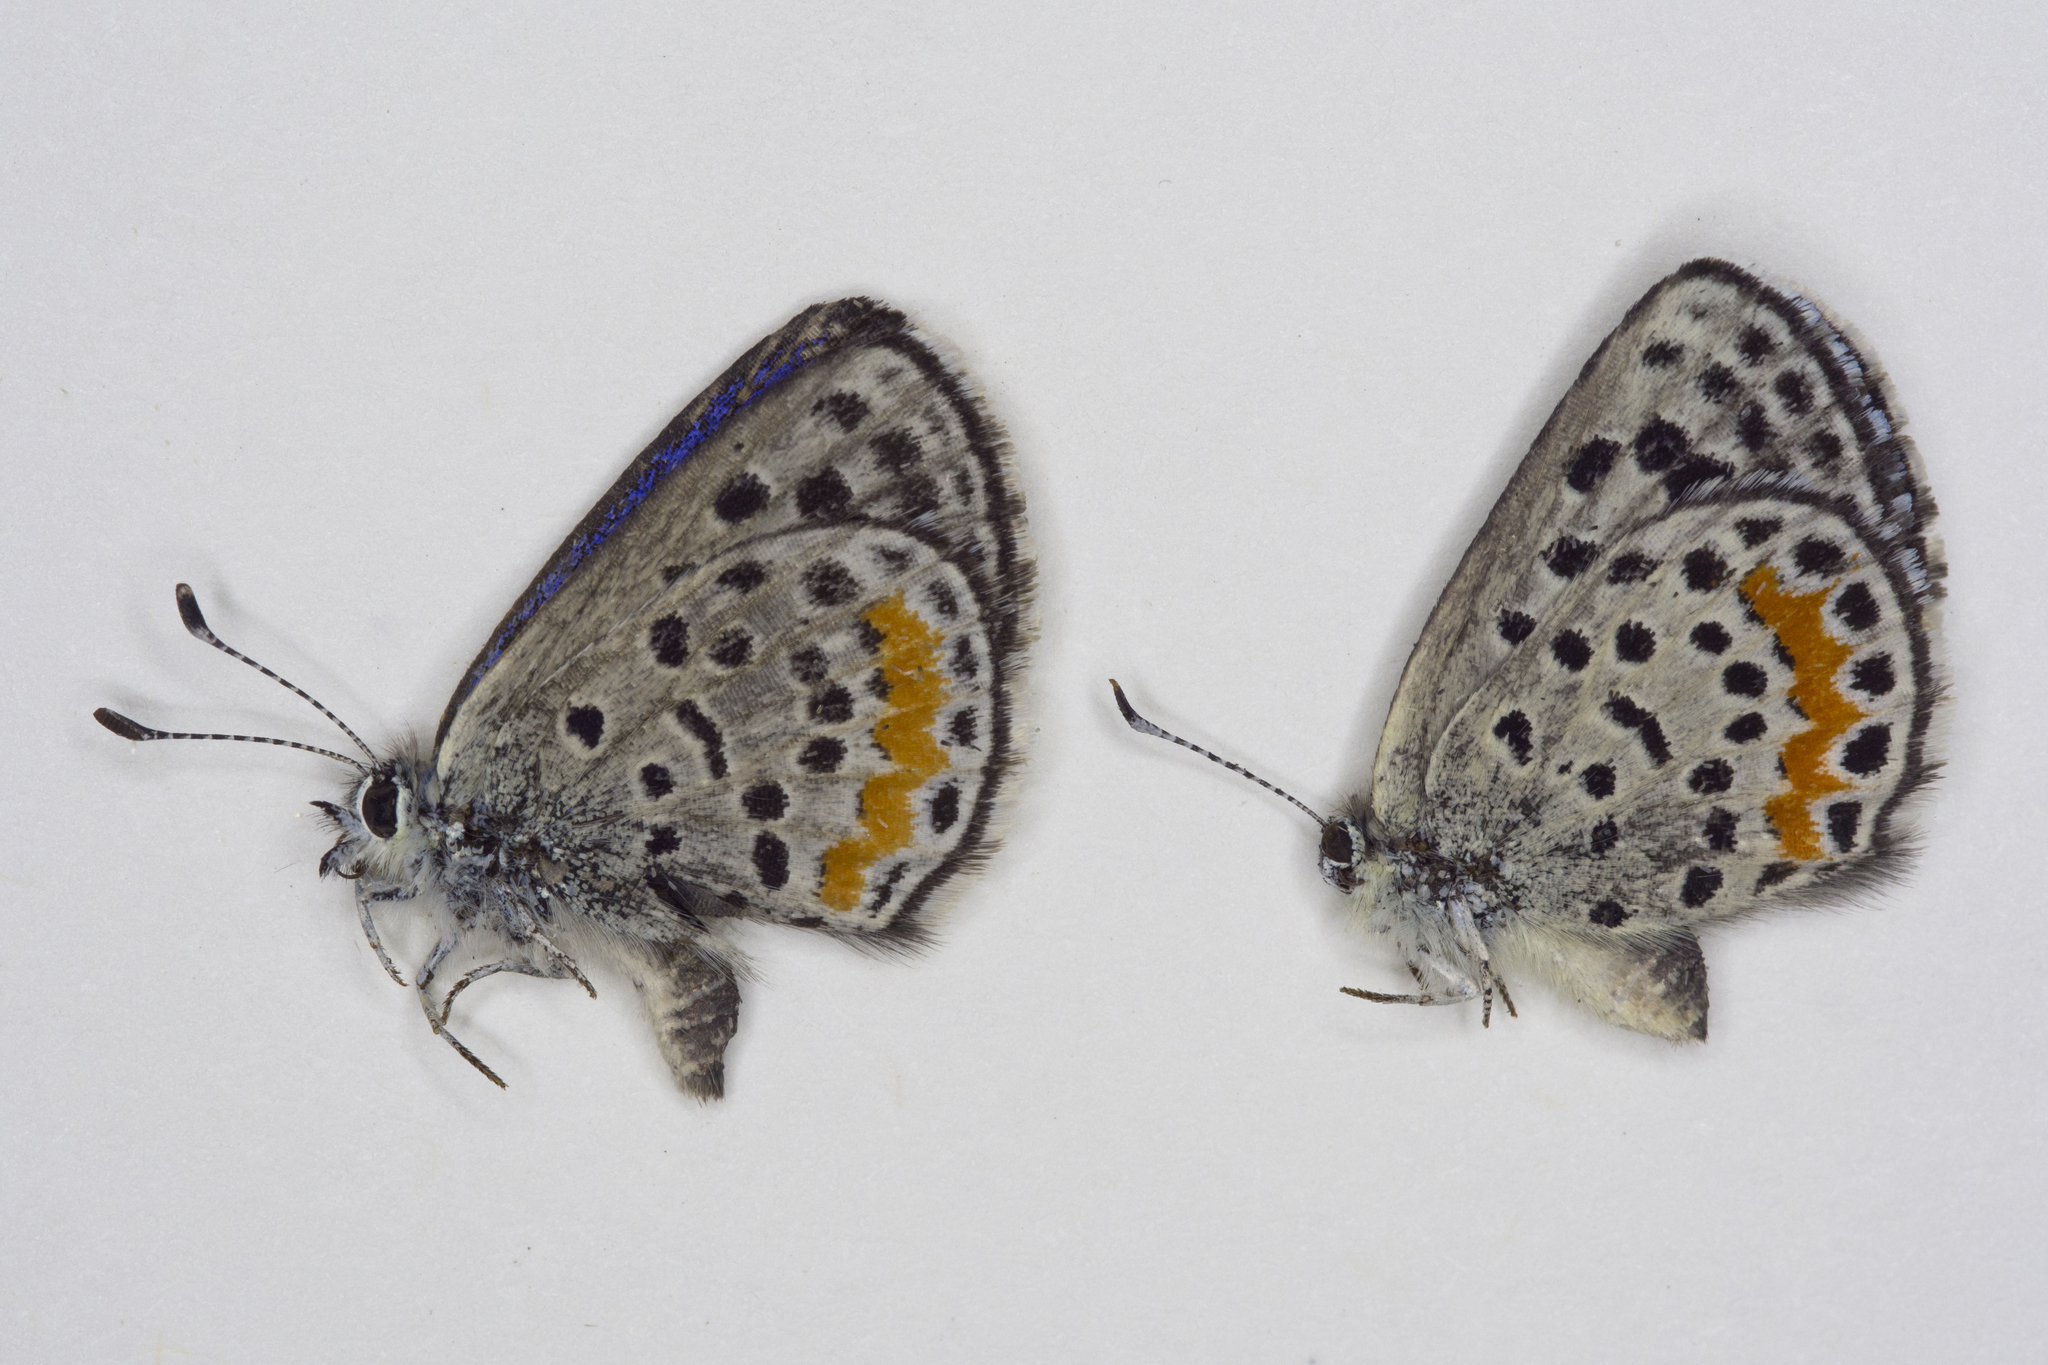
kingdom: Animalia
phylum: Arthropoda
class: Insecta
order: Lepidoptera
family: Lycaenidae
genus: Euphilotes
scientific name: Euphilotes ellisii
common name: Ellis's blue
